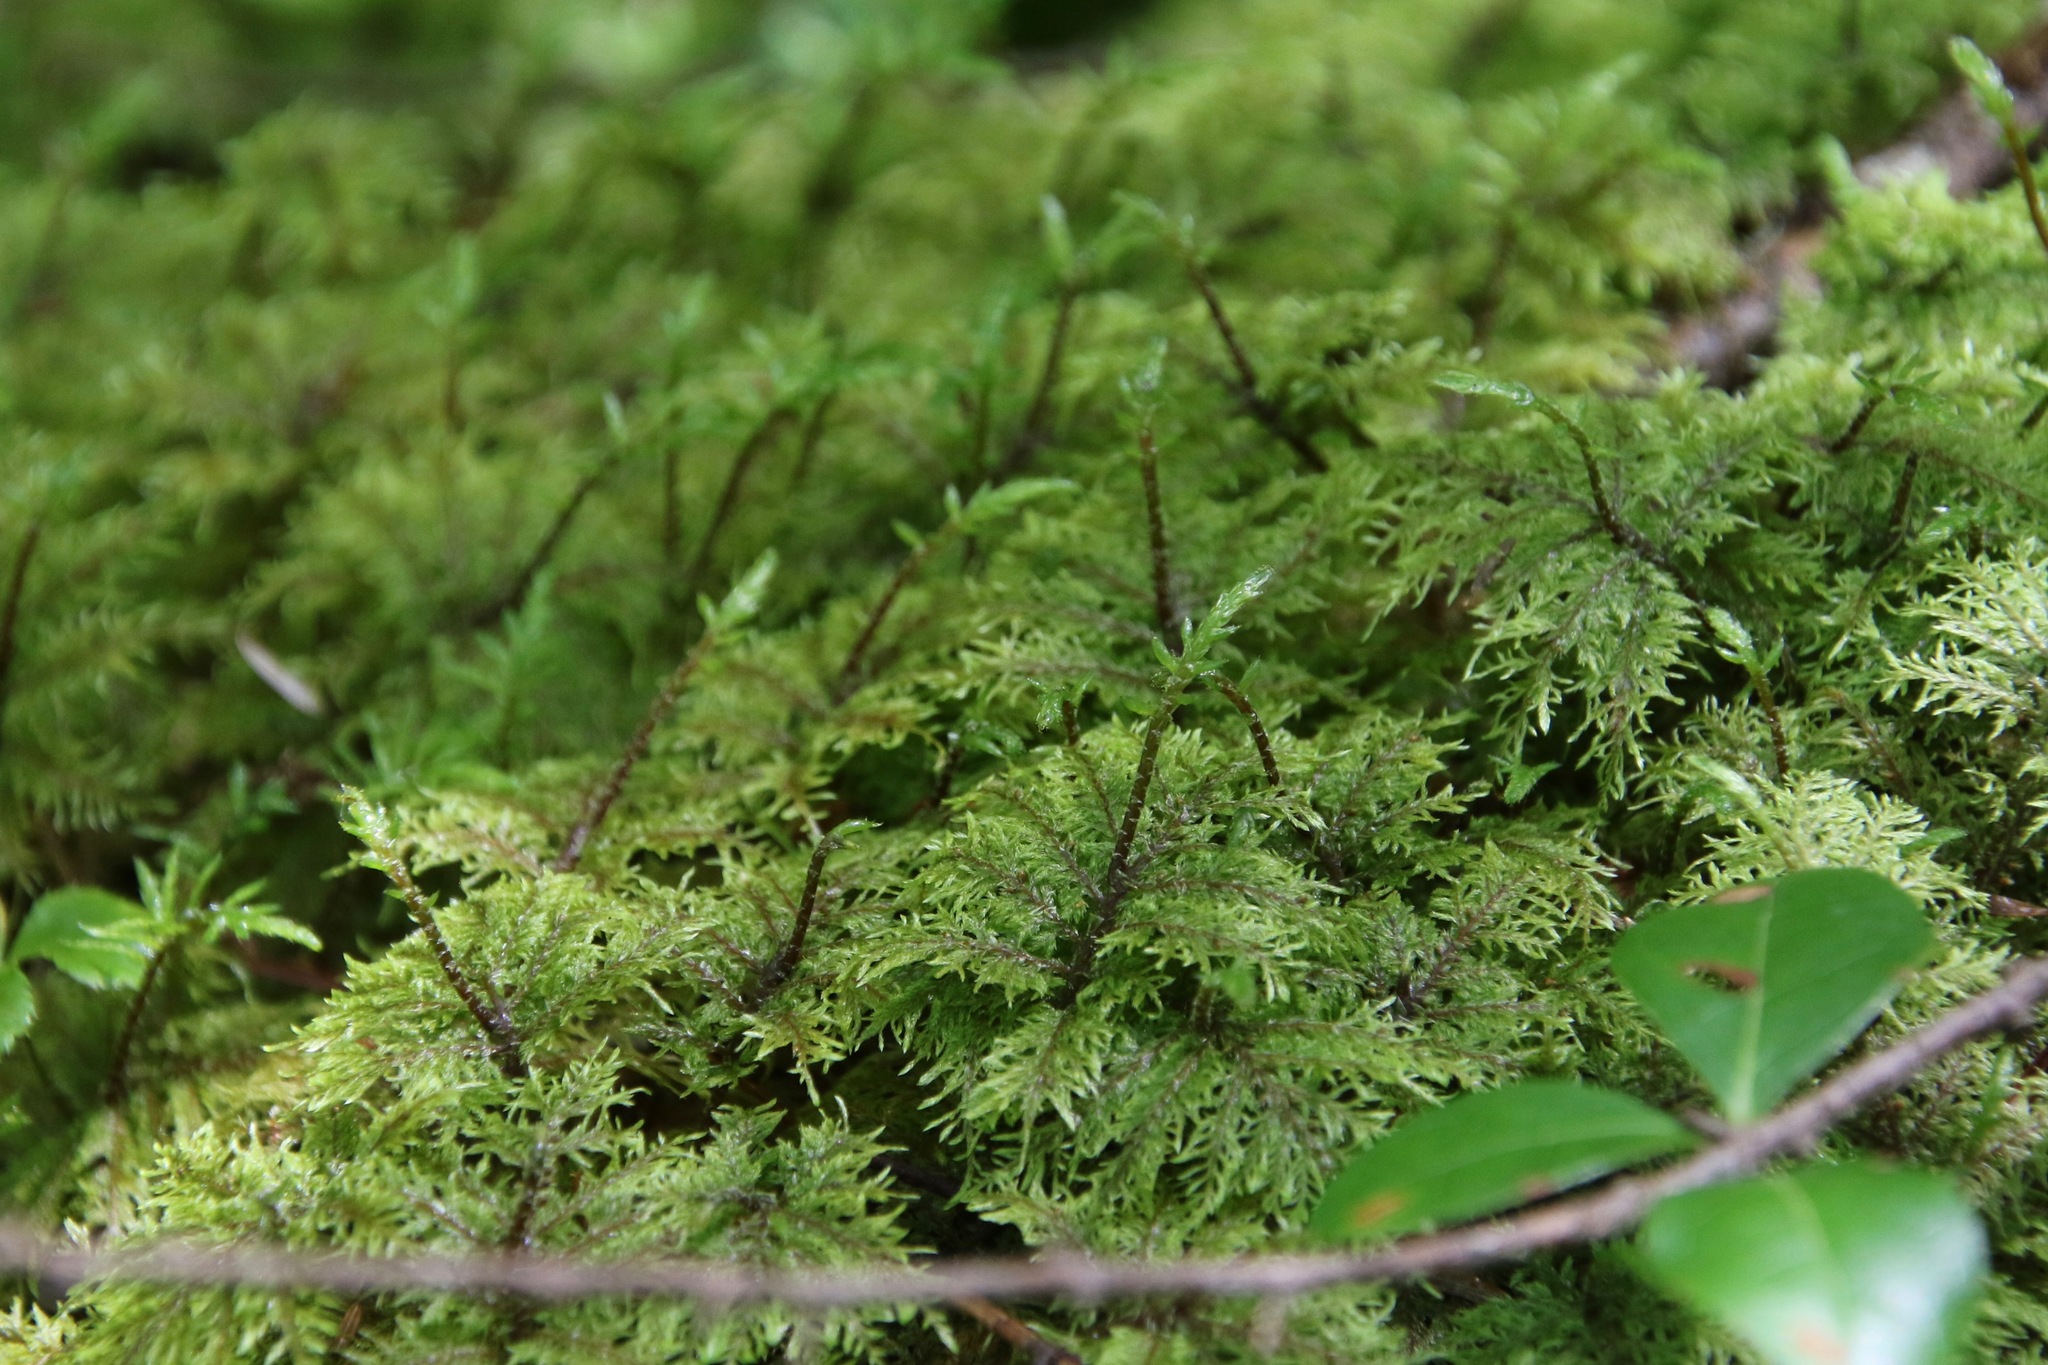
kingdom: Plantae
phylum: Bryophyta
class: Bryopsida
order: Hypnales
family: Hylocomiaceae
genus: Hylocomium
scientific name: Hylocomium splendens
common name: Stairstep moss
